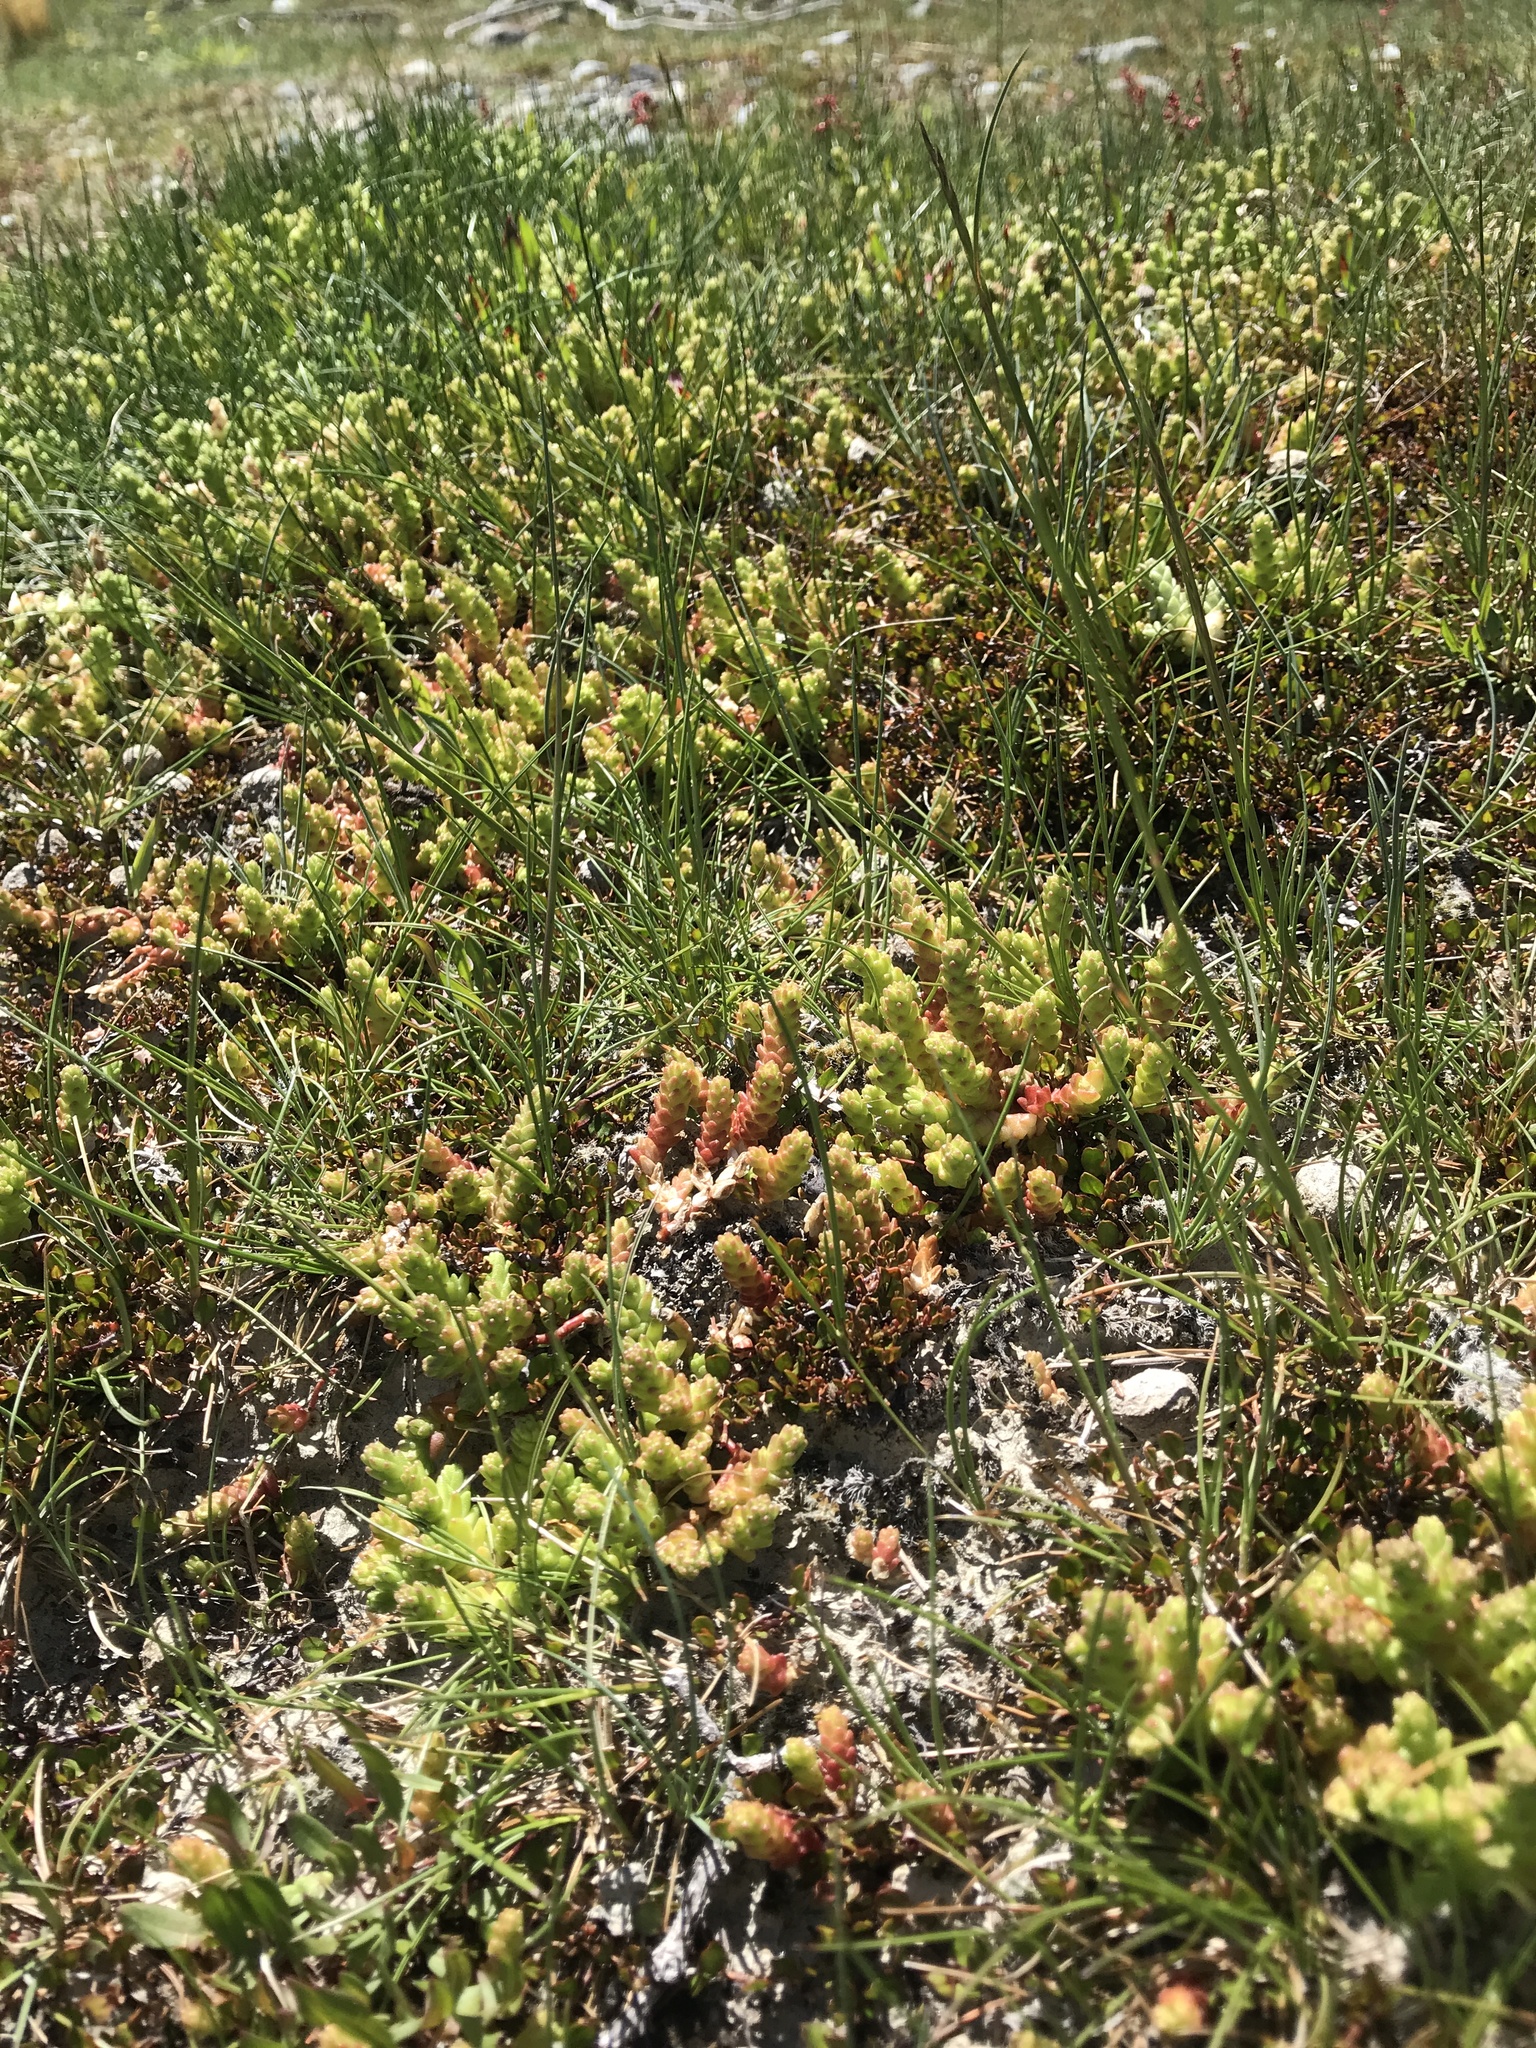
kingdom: Plantae
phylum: Tracheophyta
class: Magnoliopsida
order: Saxifragales
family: Crassulaceae
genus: Sedum
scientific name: Sedum acre
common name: Biting stonecrop
